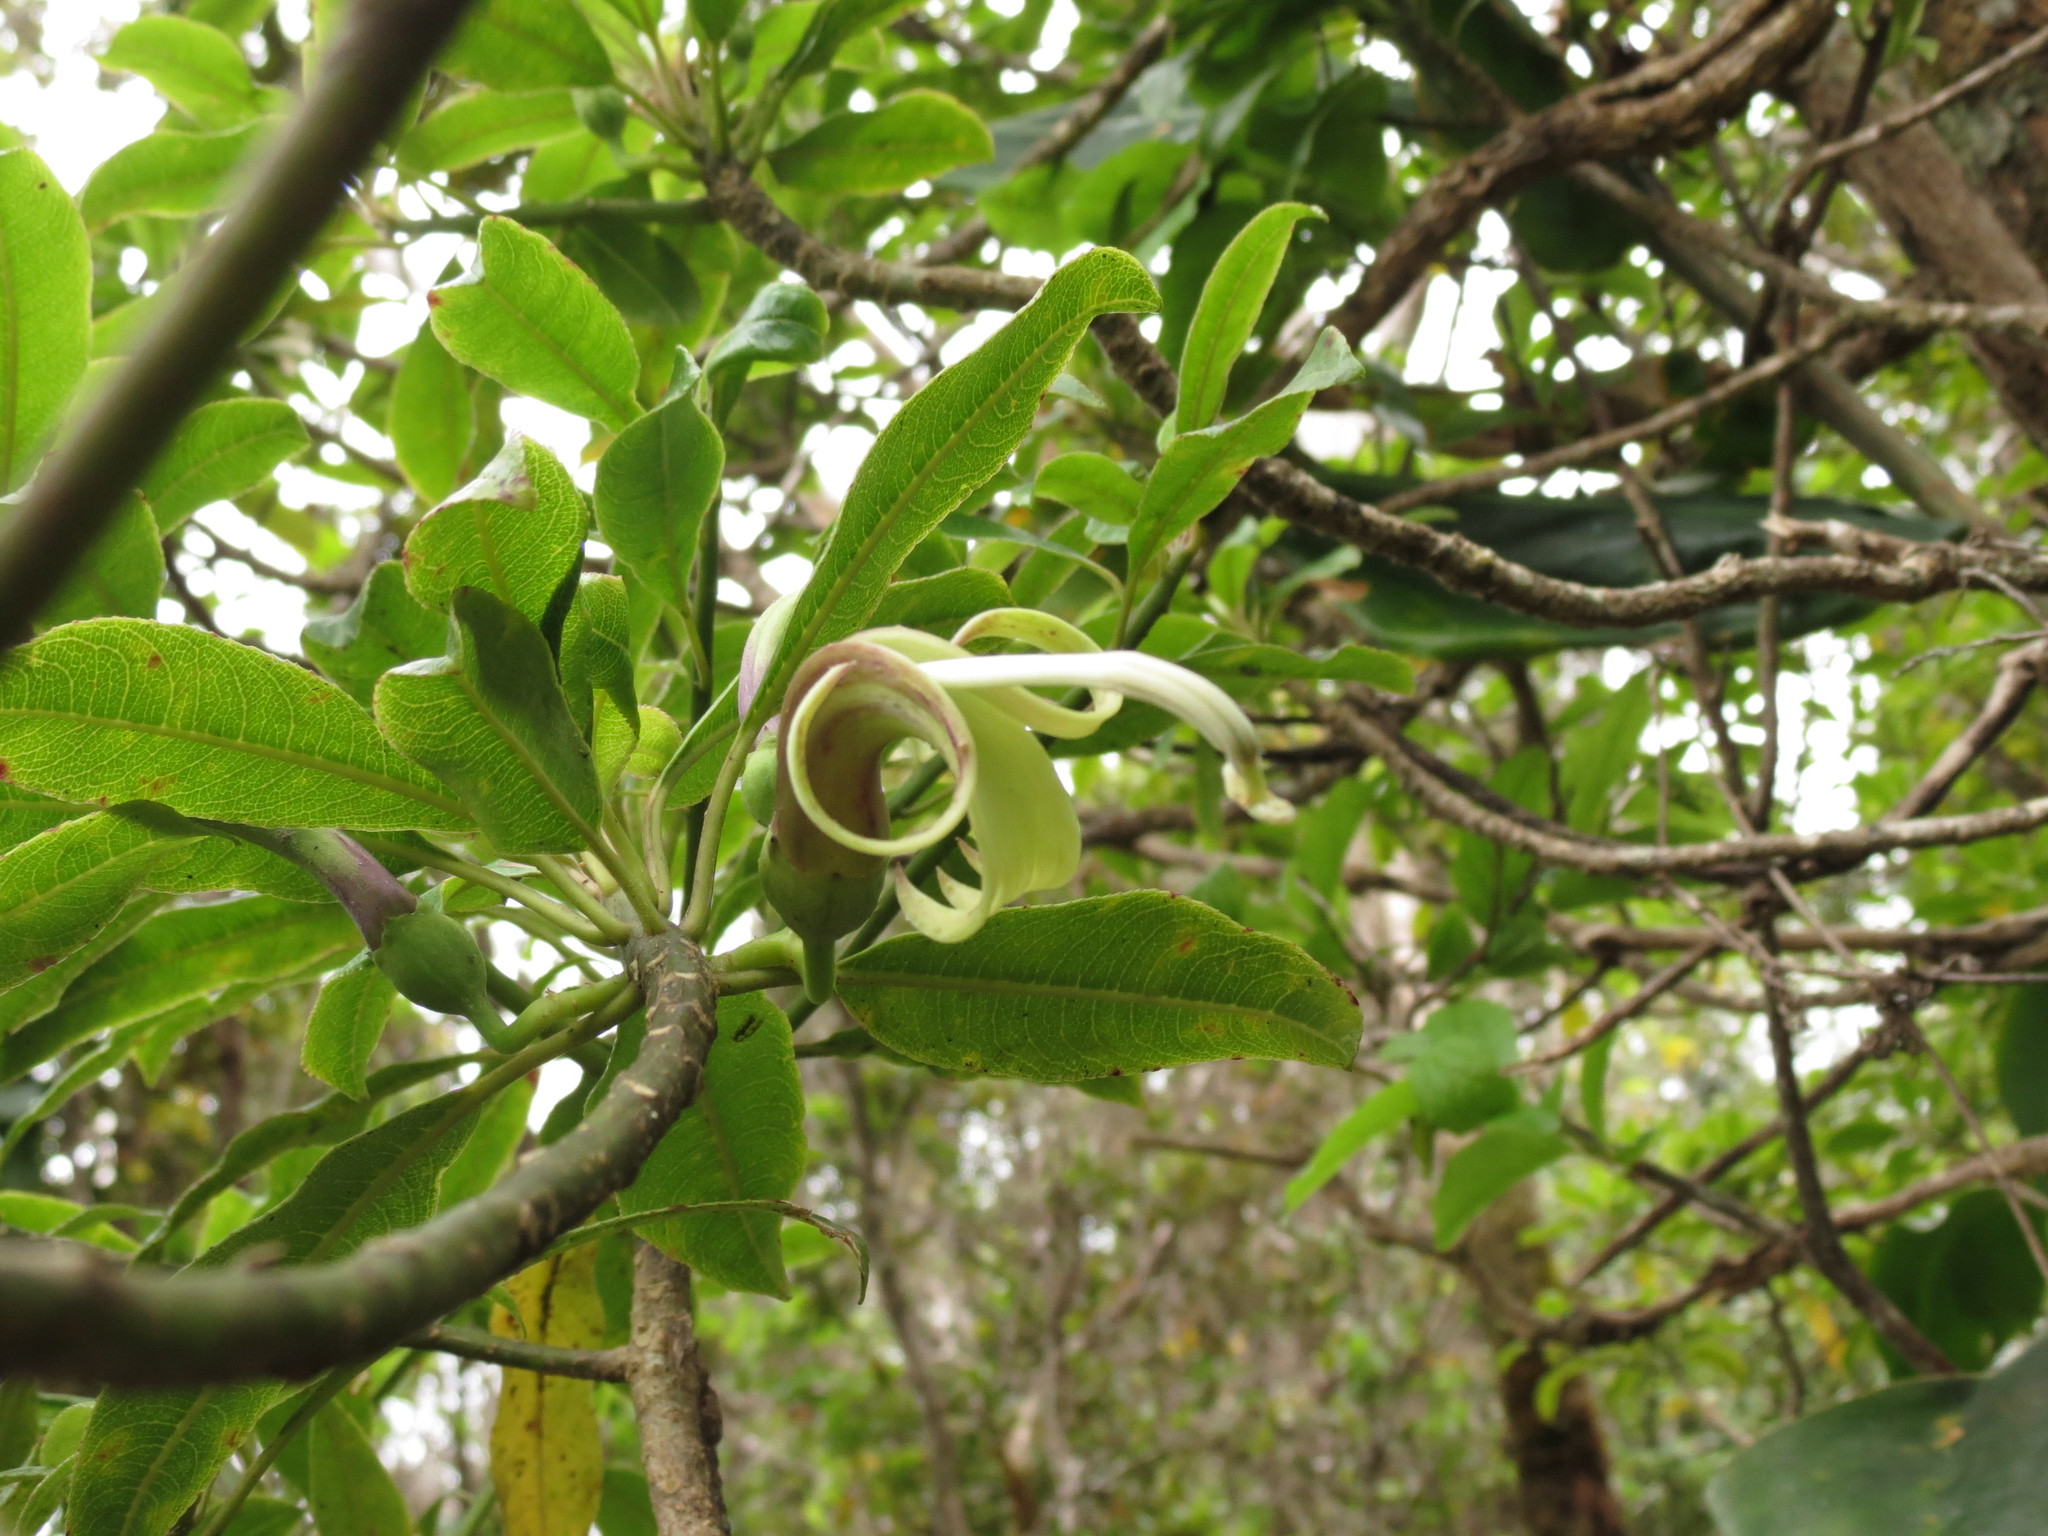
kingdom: Plantae
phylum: Tracheophyta
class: Magnoliopsida
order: Asterales
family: Campanulaceae
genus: Clermontia
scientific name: Clermontia fauriei
